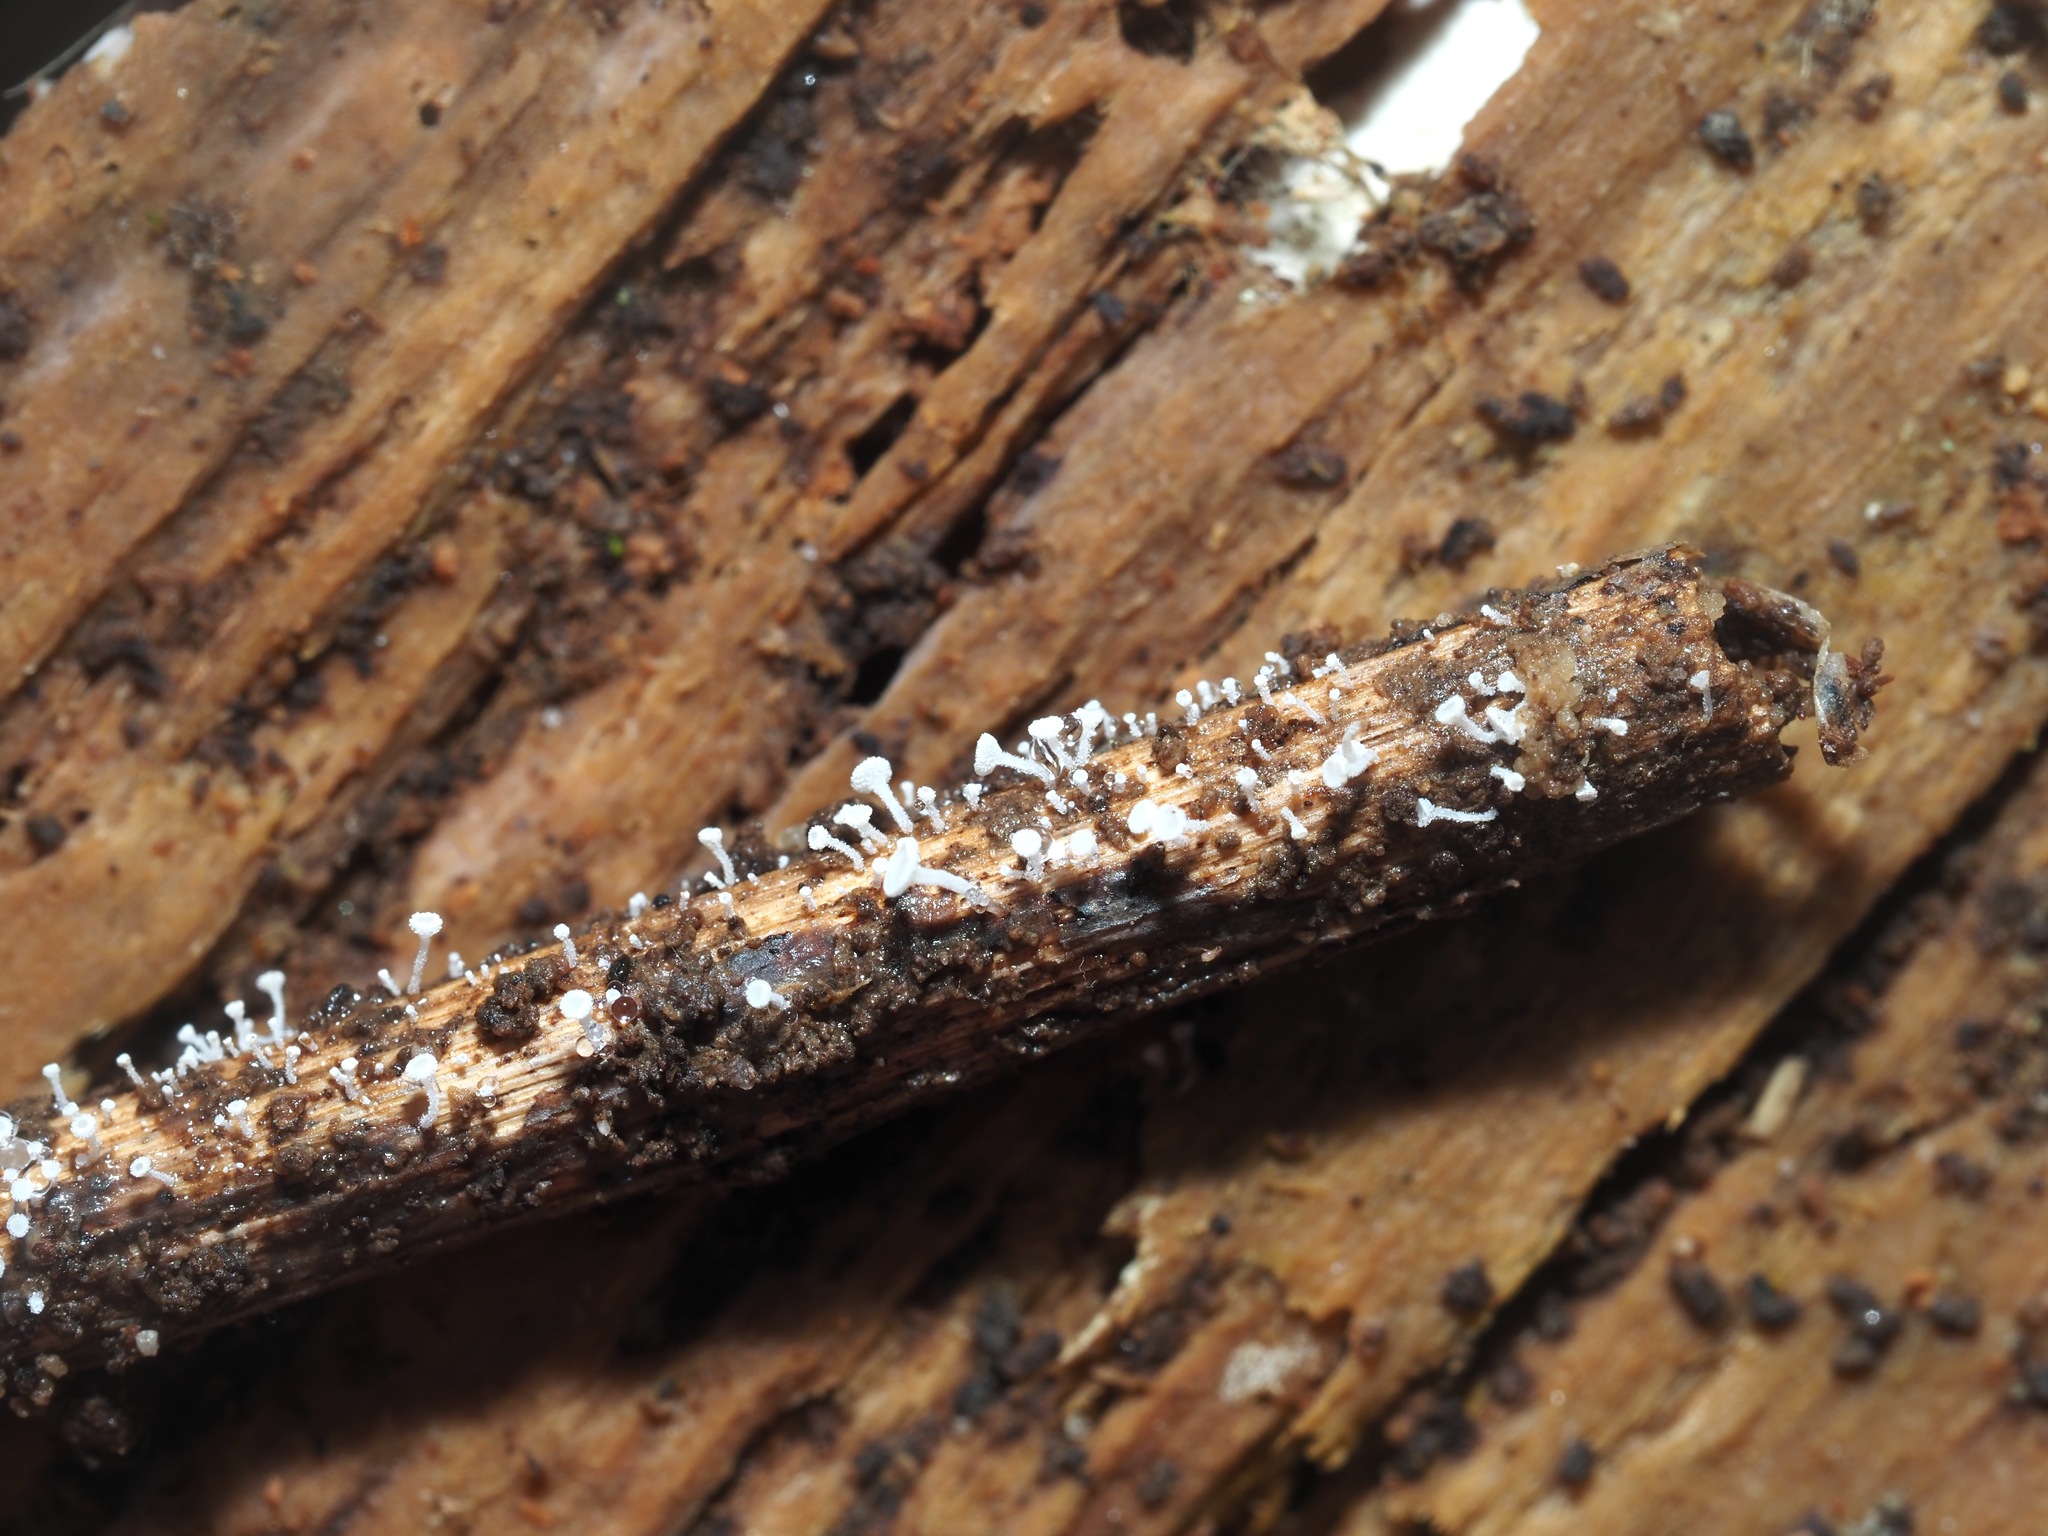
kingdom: Fungi
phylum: Ascomycota
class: Leotiomycetes
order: Helotiales
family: Lachnaceae
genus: Lachnum
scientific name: Lachnum virgineum
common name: Snowy disco
